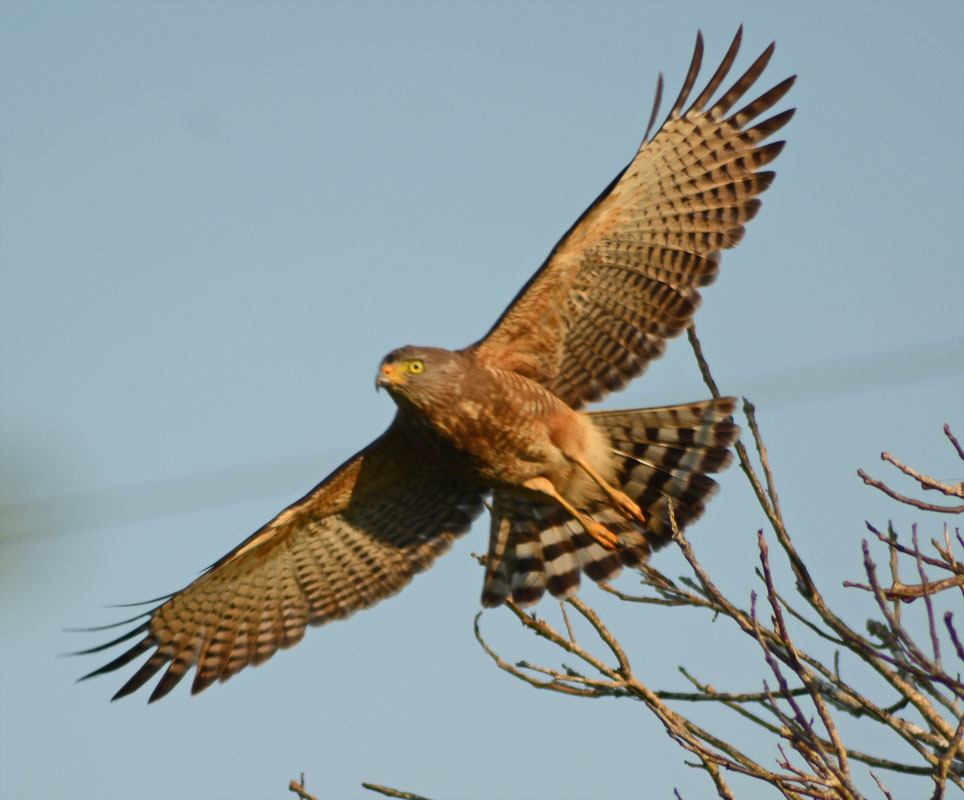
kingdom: Animalia
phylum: Chordata
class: Aves
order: Accipitriformes
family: Accipitridae
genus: Rupornis
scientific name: Rupornis magnirostris
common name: Roadside hawk
